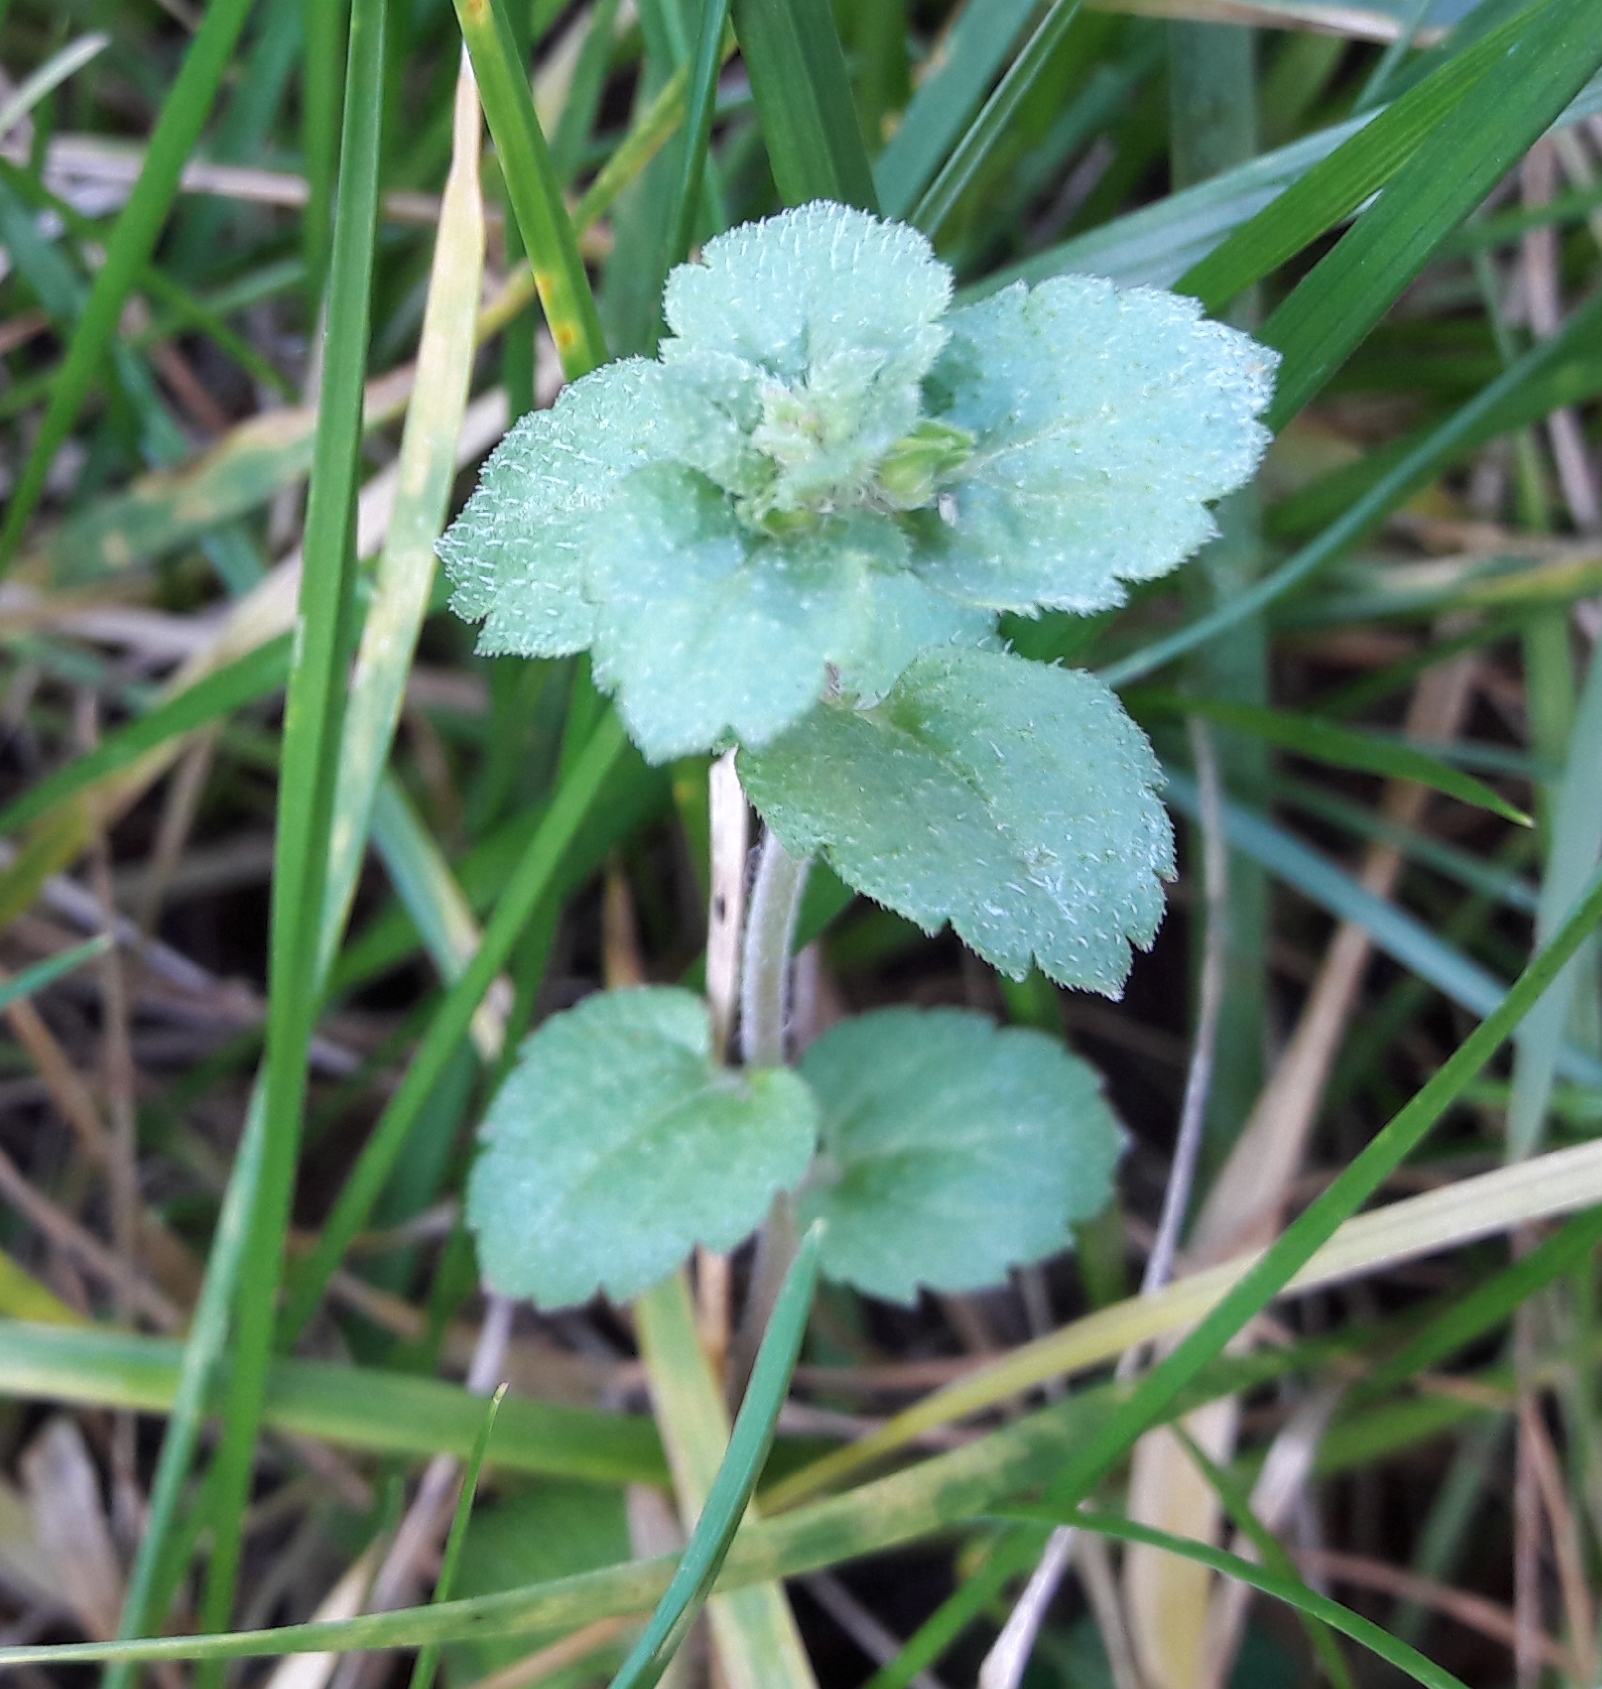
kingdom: Plantae
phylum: Tracheophyta
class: Magnoliopsida
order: Lamiales
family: Plantaginaceae
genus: Veronica
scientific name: Veronica persica
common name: Common field-speedwell
